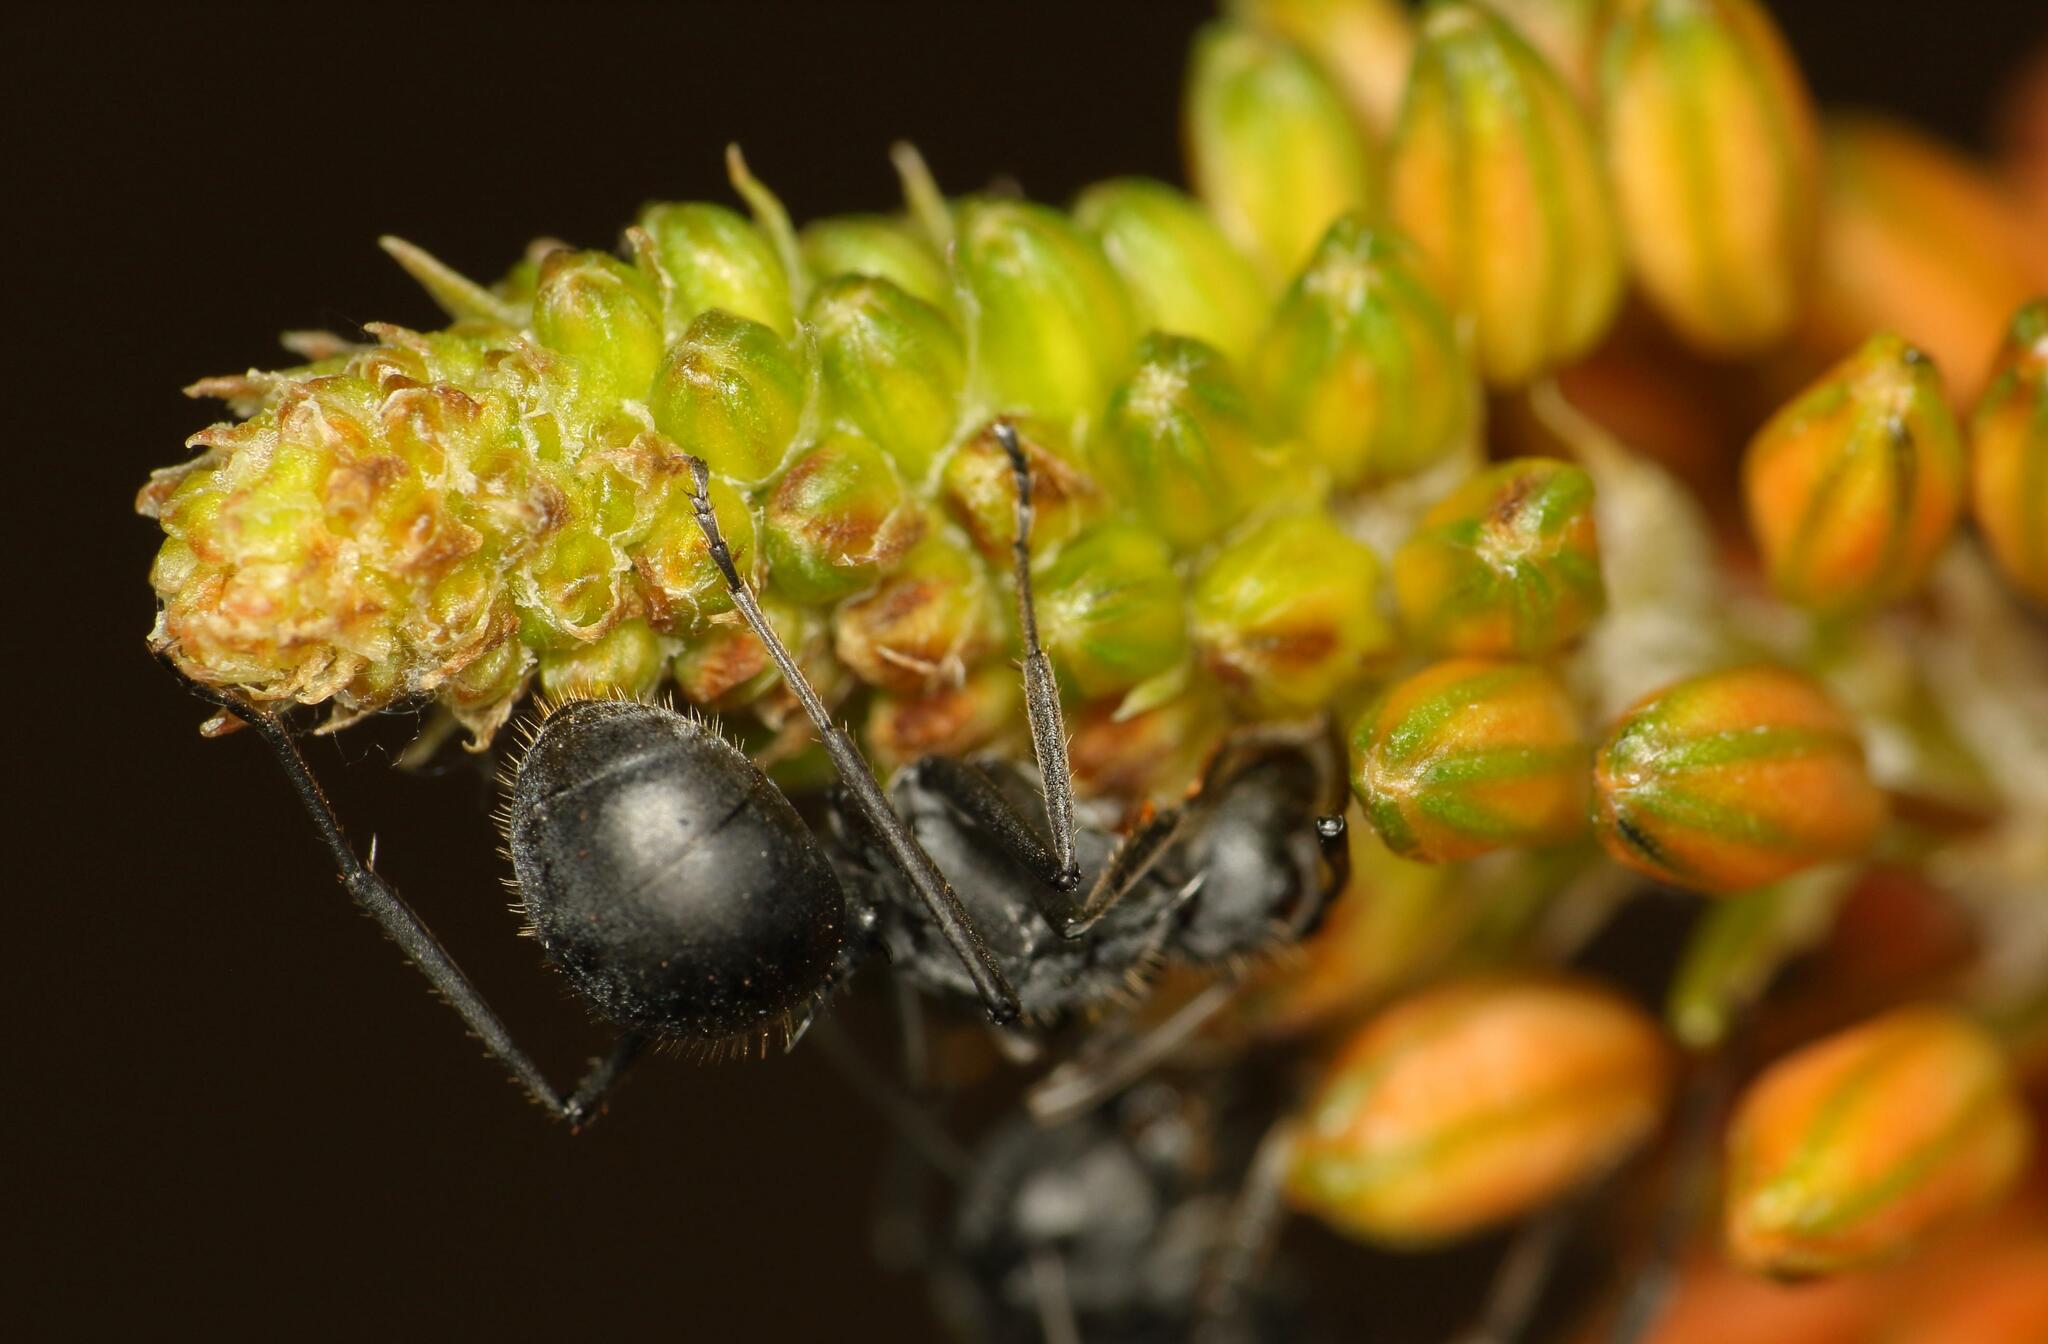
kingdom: Animalia
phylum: Arthropoda
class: Insecta
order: Hymenoptera
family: Formicidae
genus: Polyrhachis
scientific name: Polyrhachis schistacea
